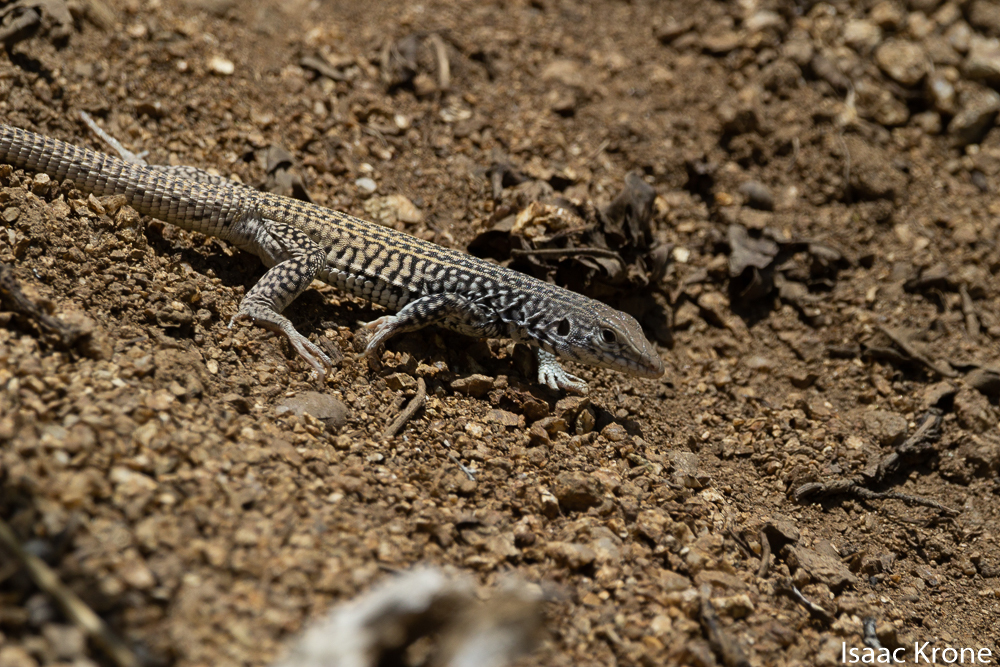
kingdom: Animalia
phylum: Chordata
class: Squamata
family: Teiidae
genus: Aspidoscelis
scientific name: Aspidoscelis tigris
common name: Tiger whiptail
